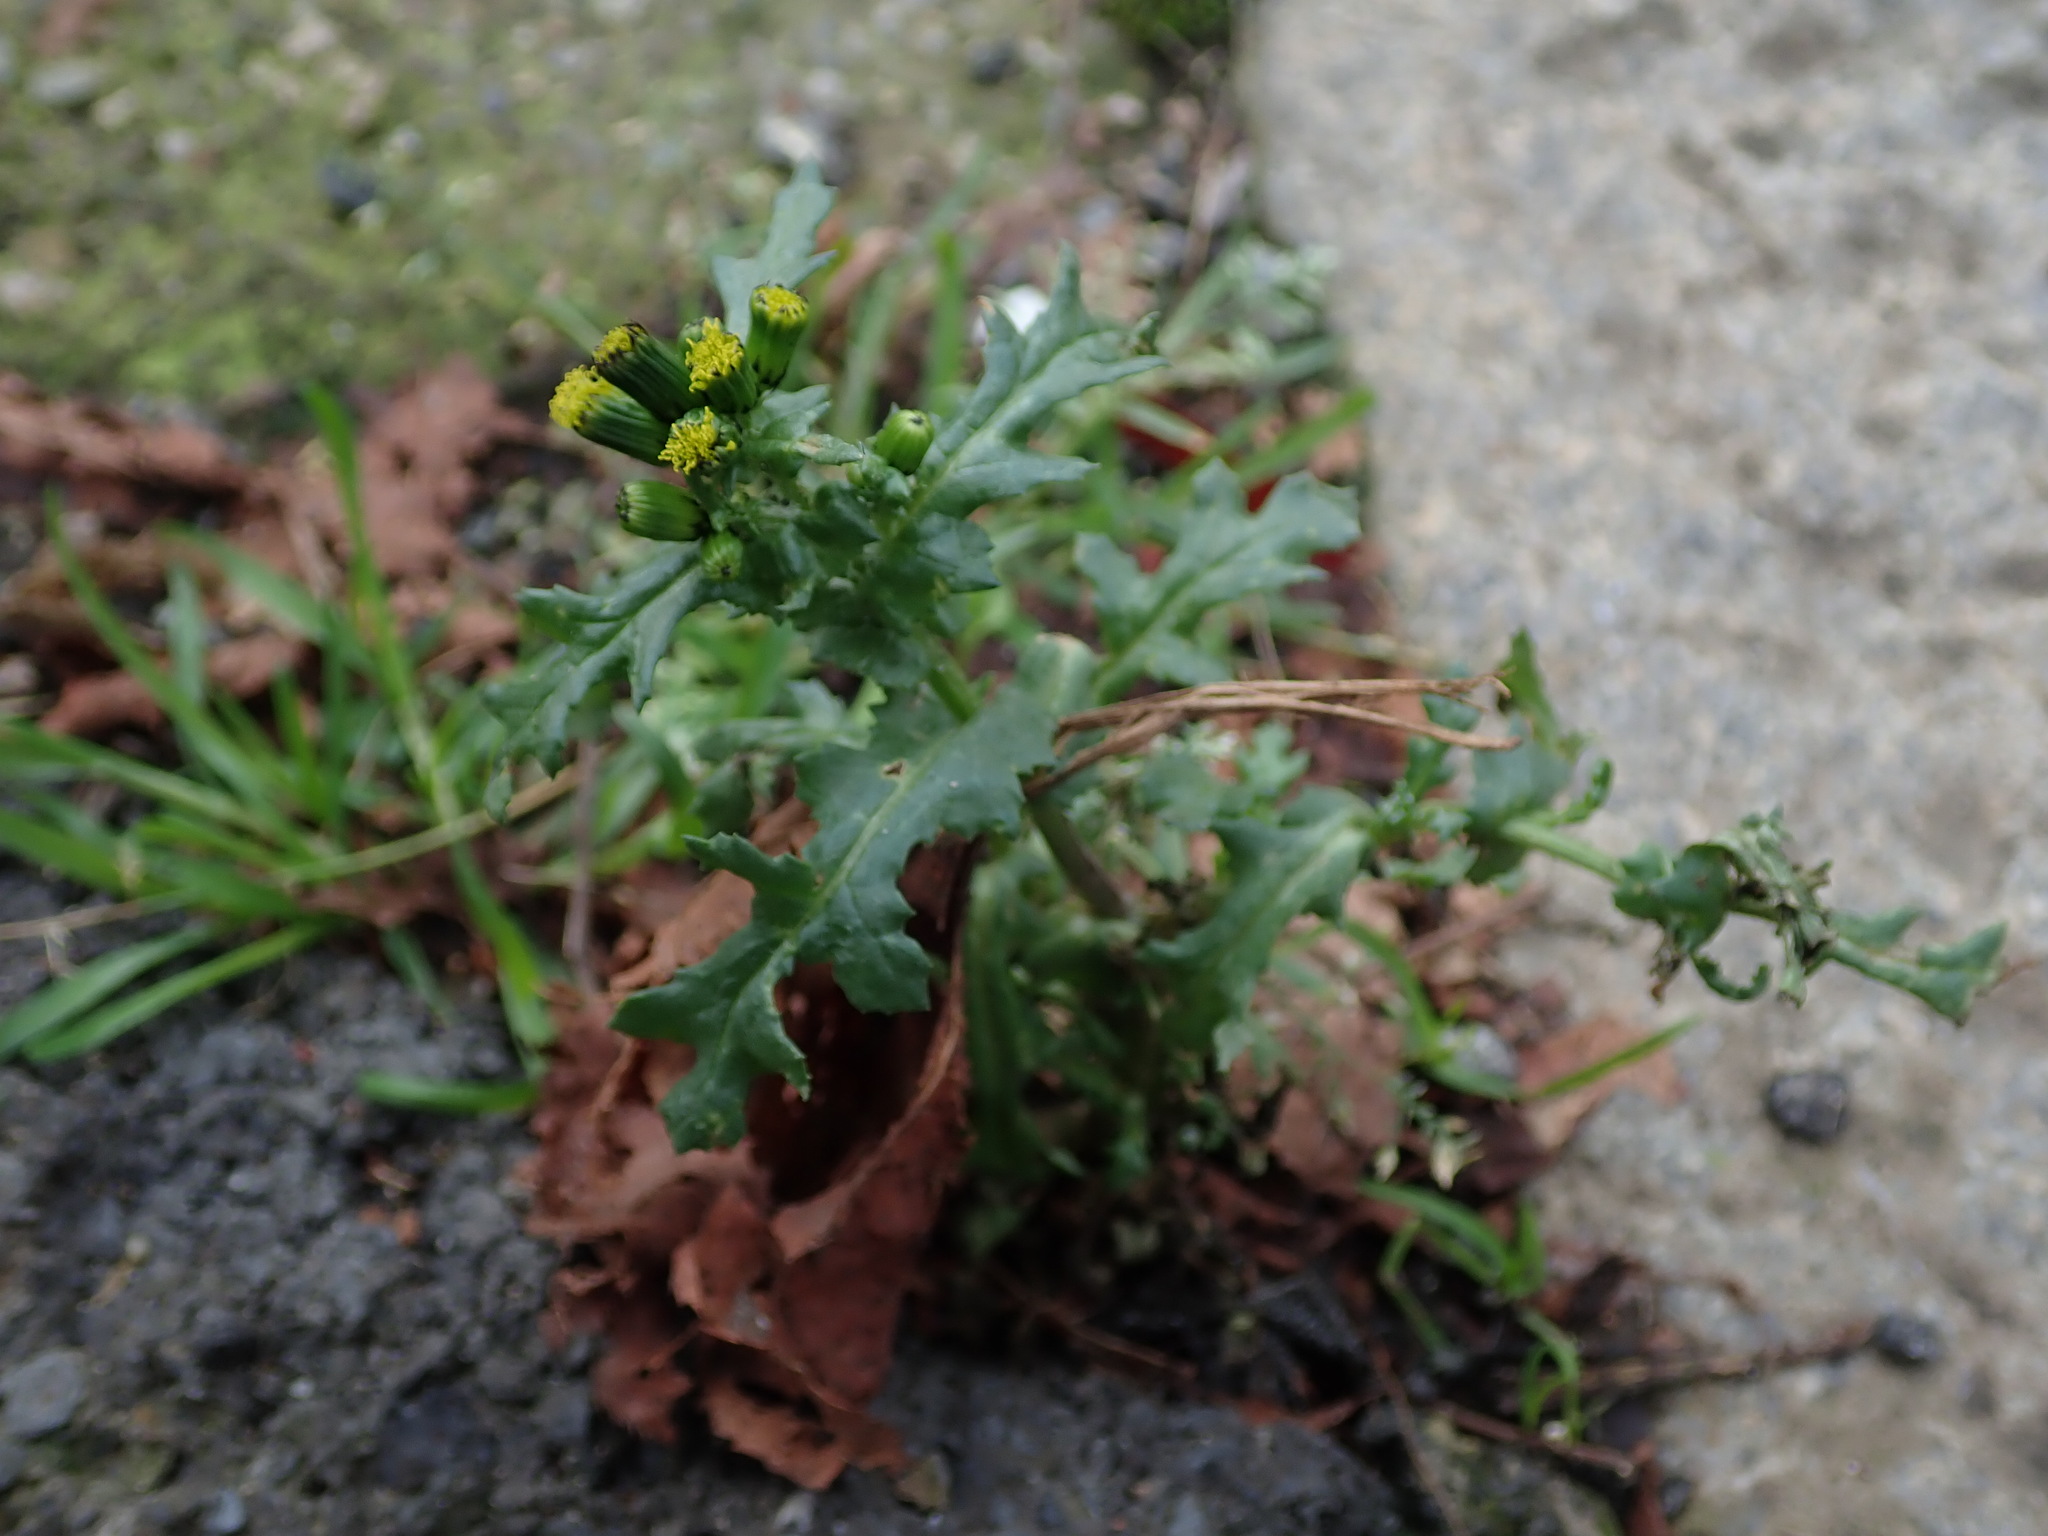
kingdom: Plantae
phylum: Tracheophyta
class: Magnoliopsida
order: Asterales
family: Asteraceae
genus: Senecio
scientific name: Senecio vulgaris
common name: Old-man-in-the-spring
